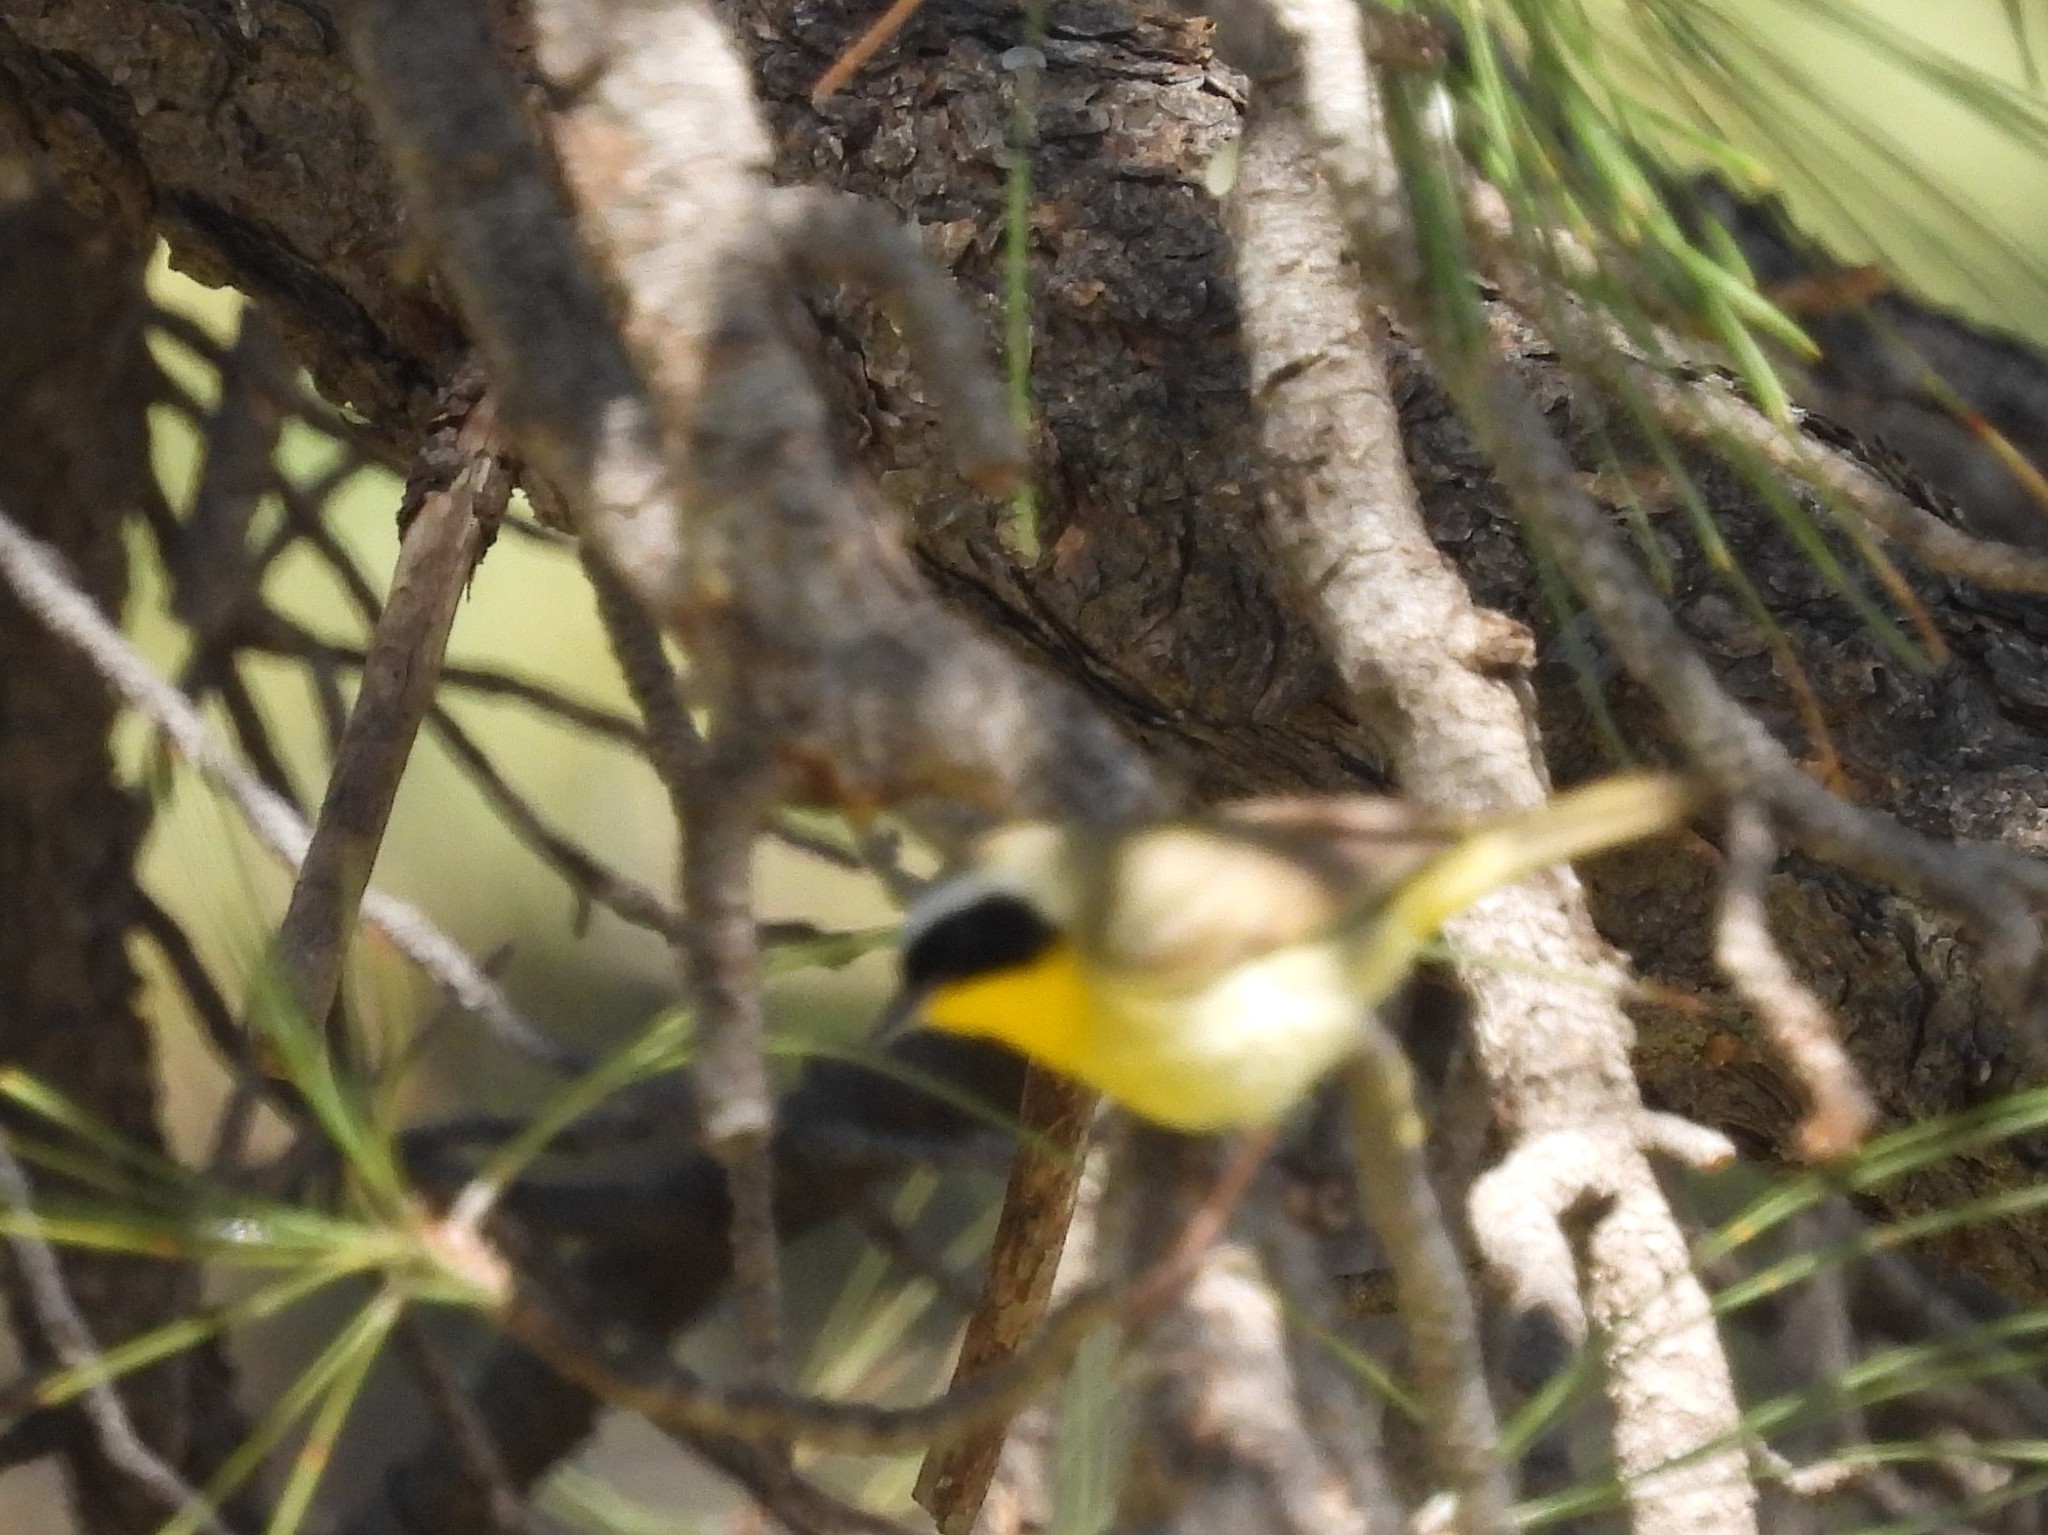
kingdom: Animalia
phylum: Chordata
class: Aves
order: Passeriformes
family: Parulidae
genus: Geothlypis
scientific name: Geothlypis trichas
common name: Common yellowthroat
